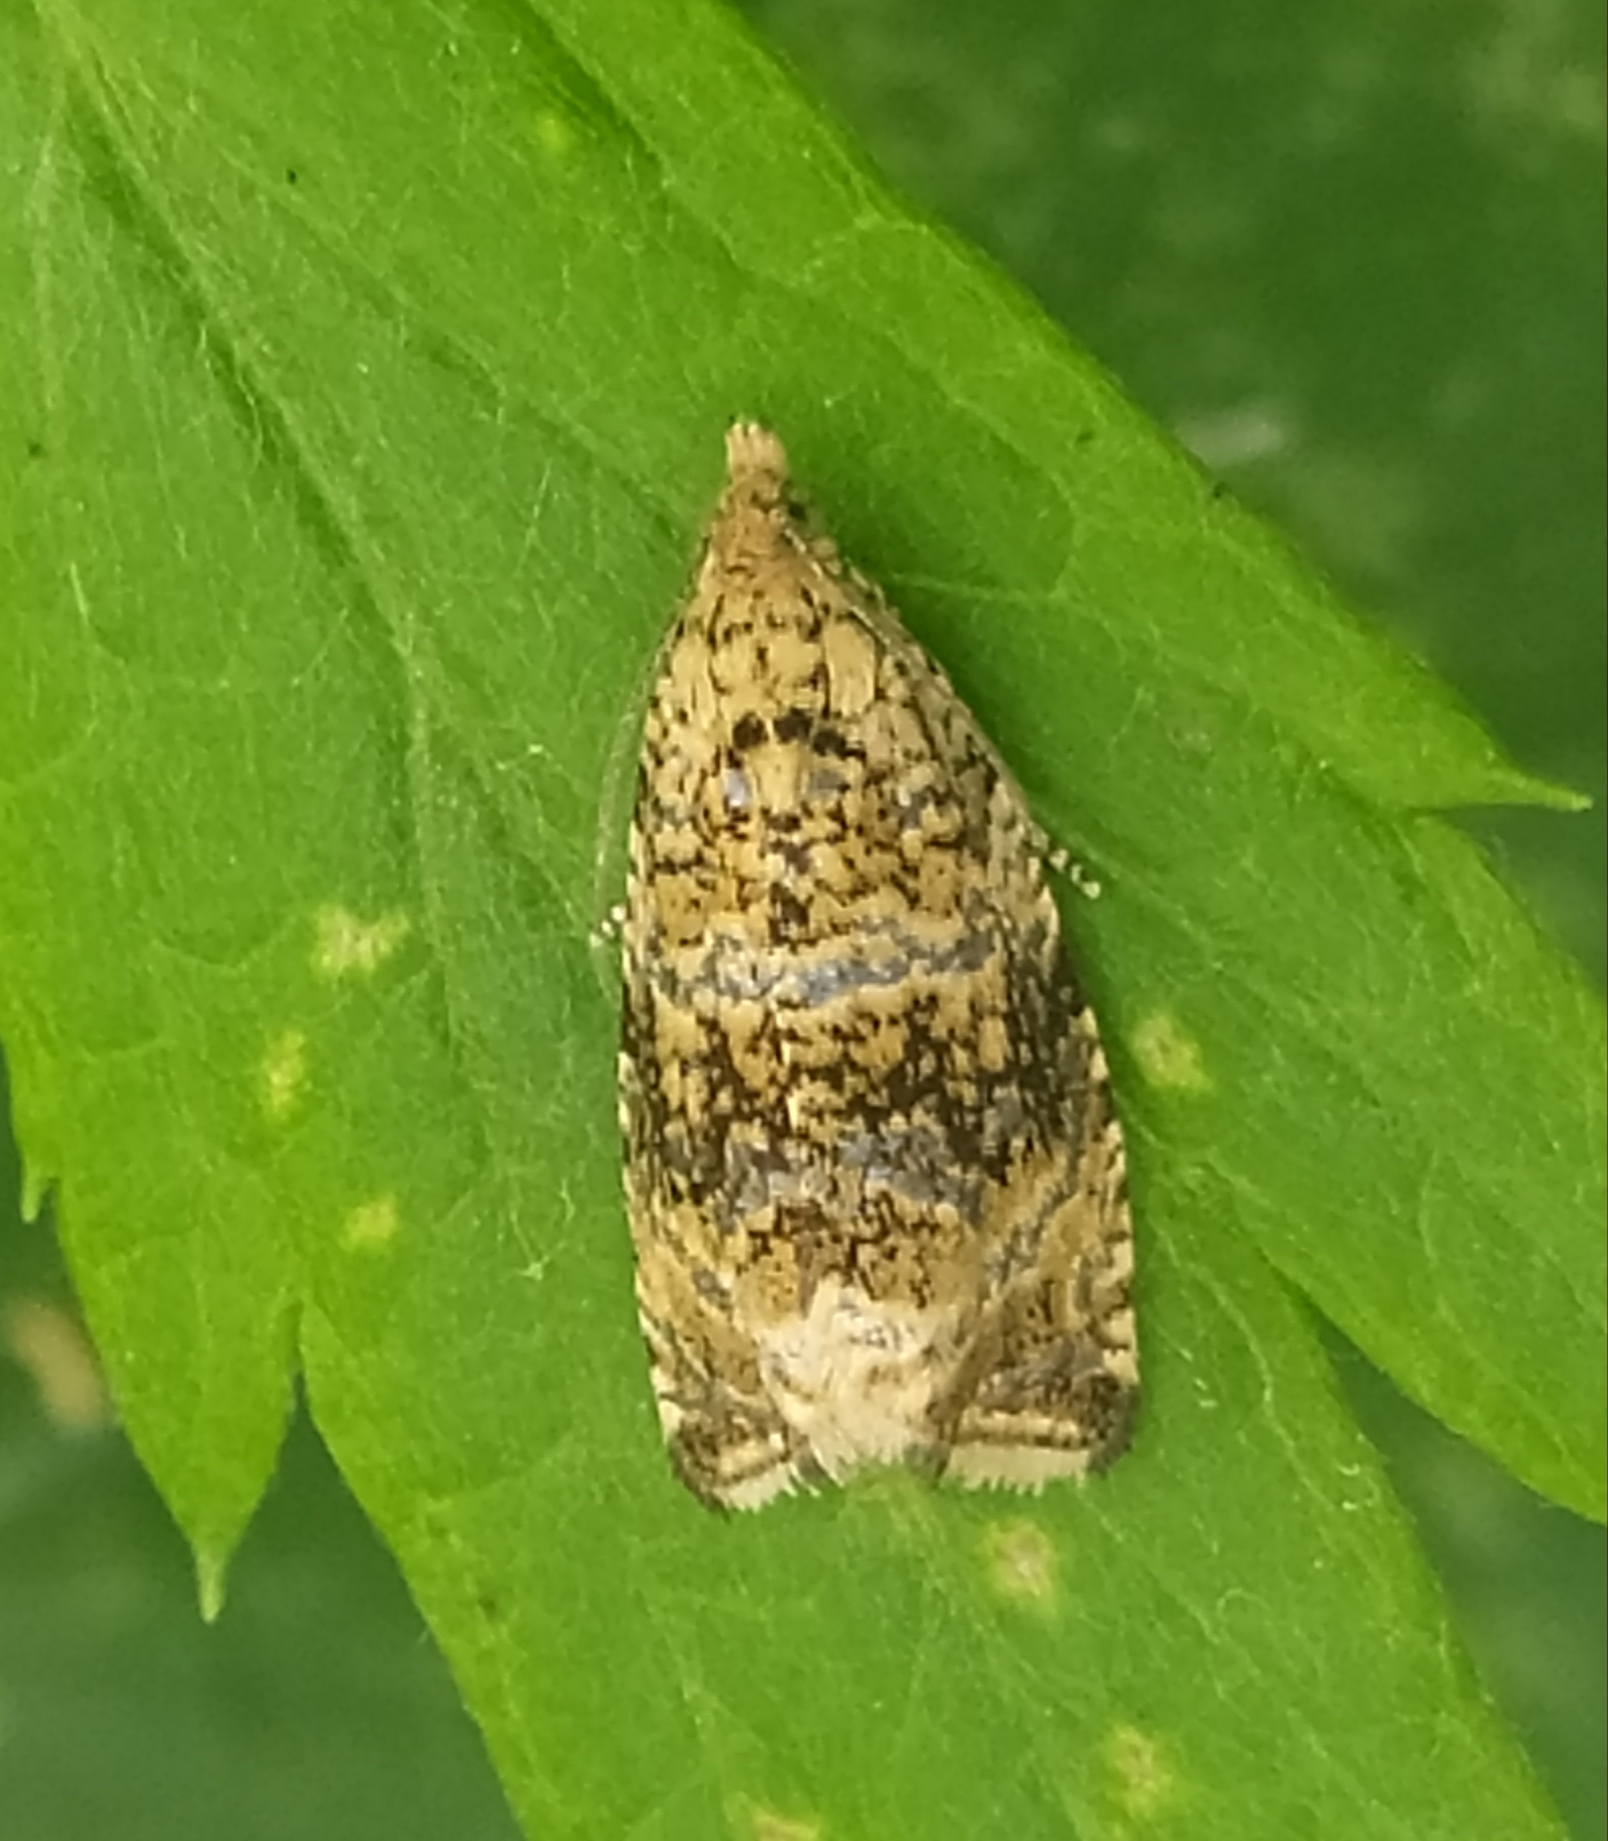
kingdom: Animalia
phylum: Arthropoda
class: Insecta
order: Lepidoptera
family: Tortricidae
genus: Syricoris
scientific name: Syricoris lacunana
